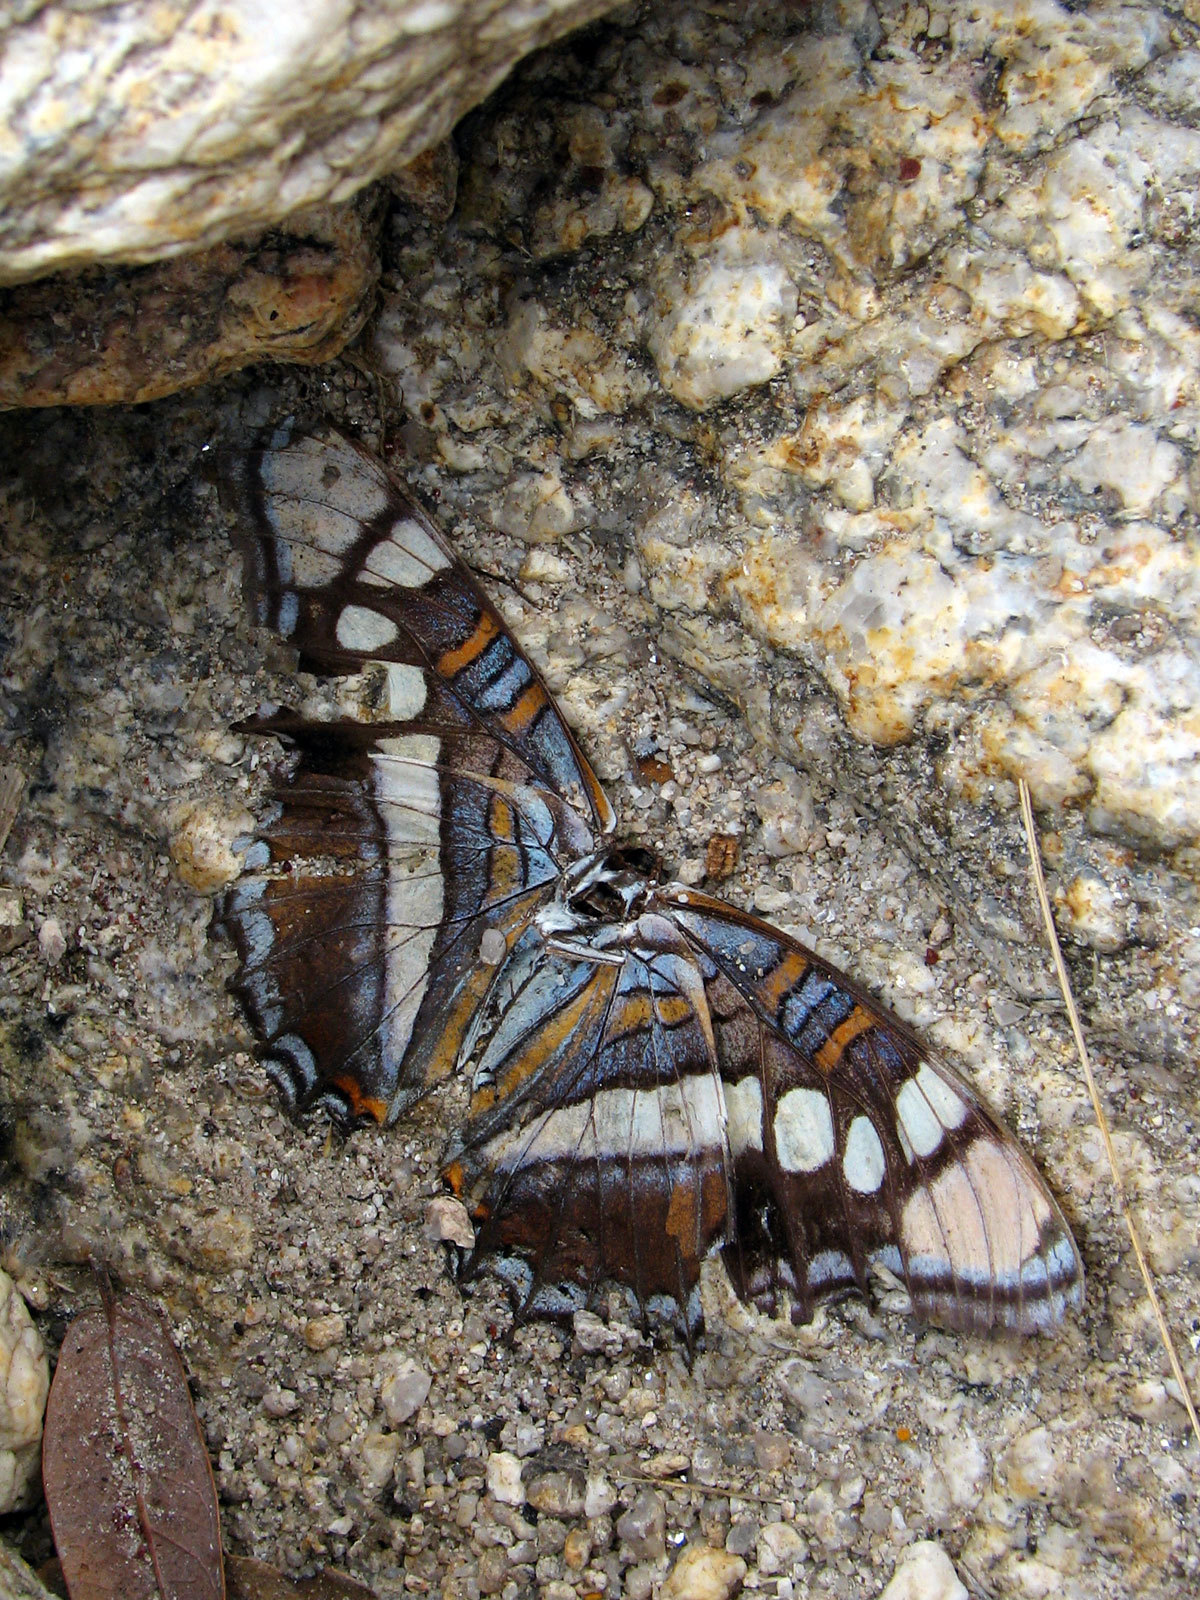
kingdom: Animalia
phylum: Arthropoda
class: Insecta
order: Lepidoptera
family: Nymphalidae
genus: Limenitis
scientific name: Limenitis bredowii
